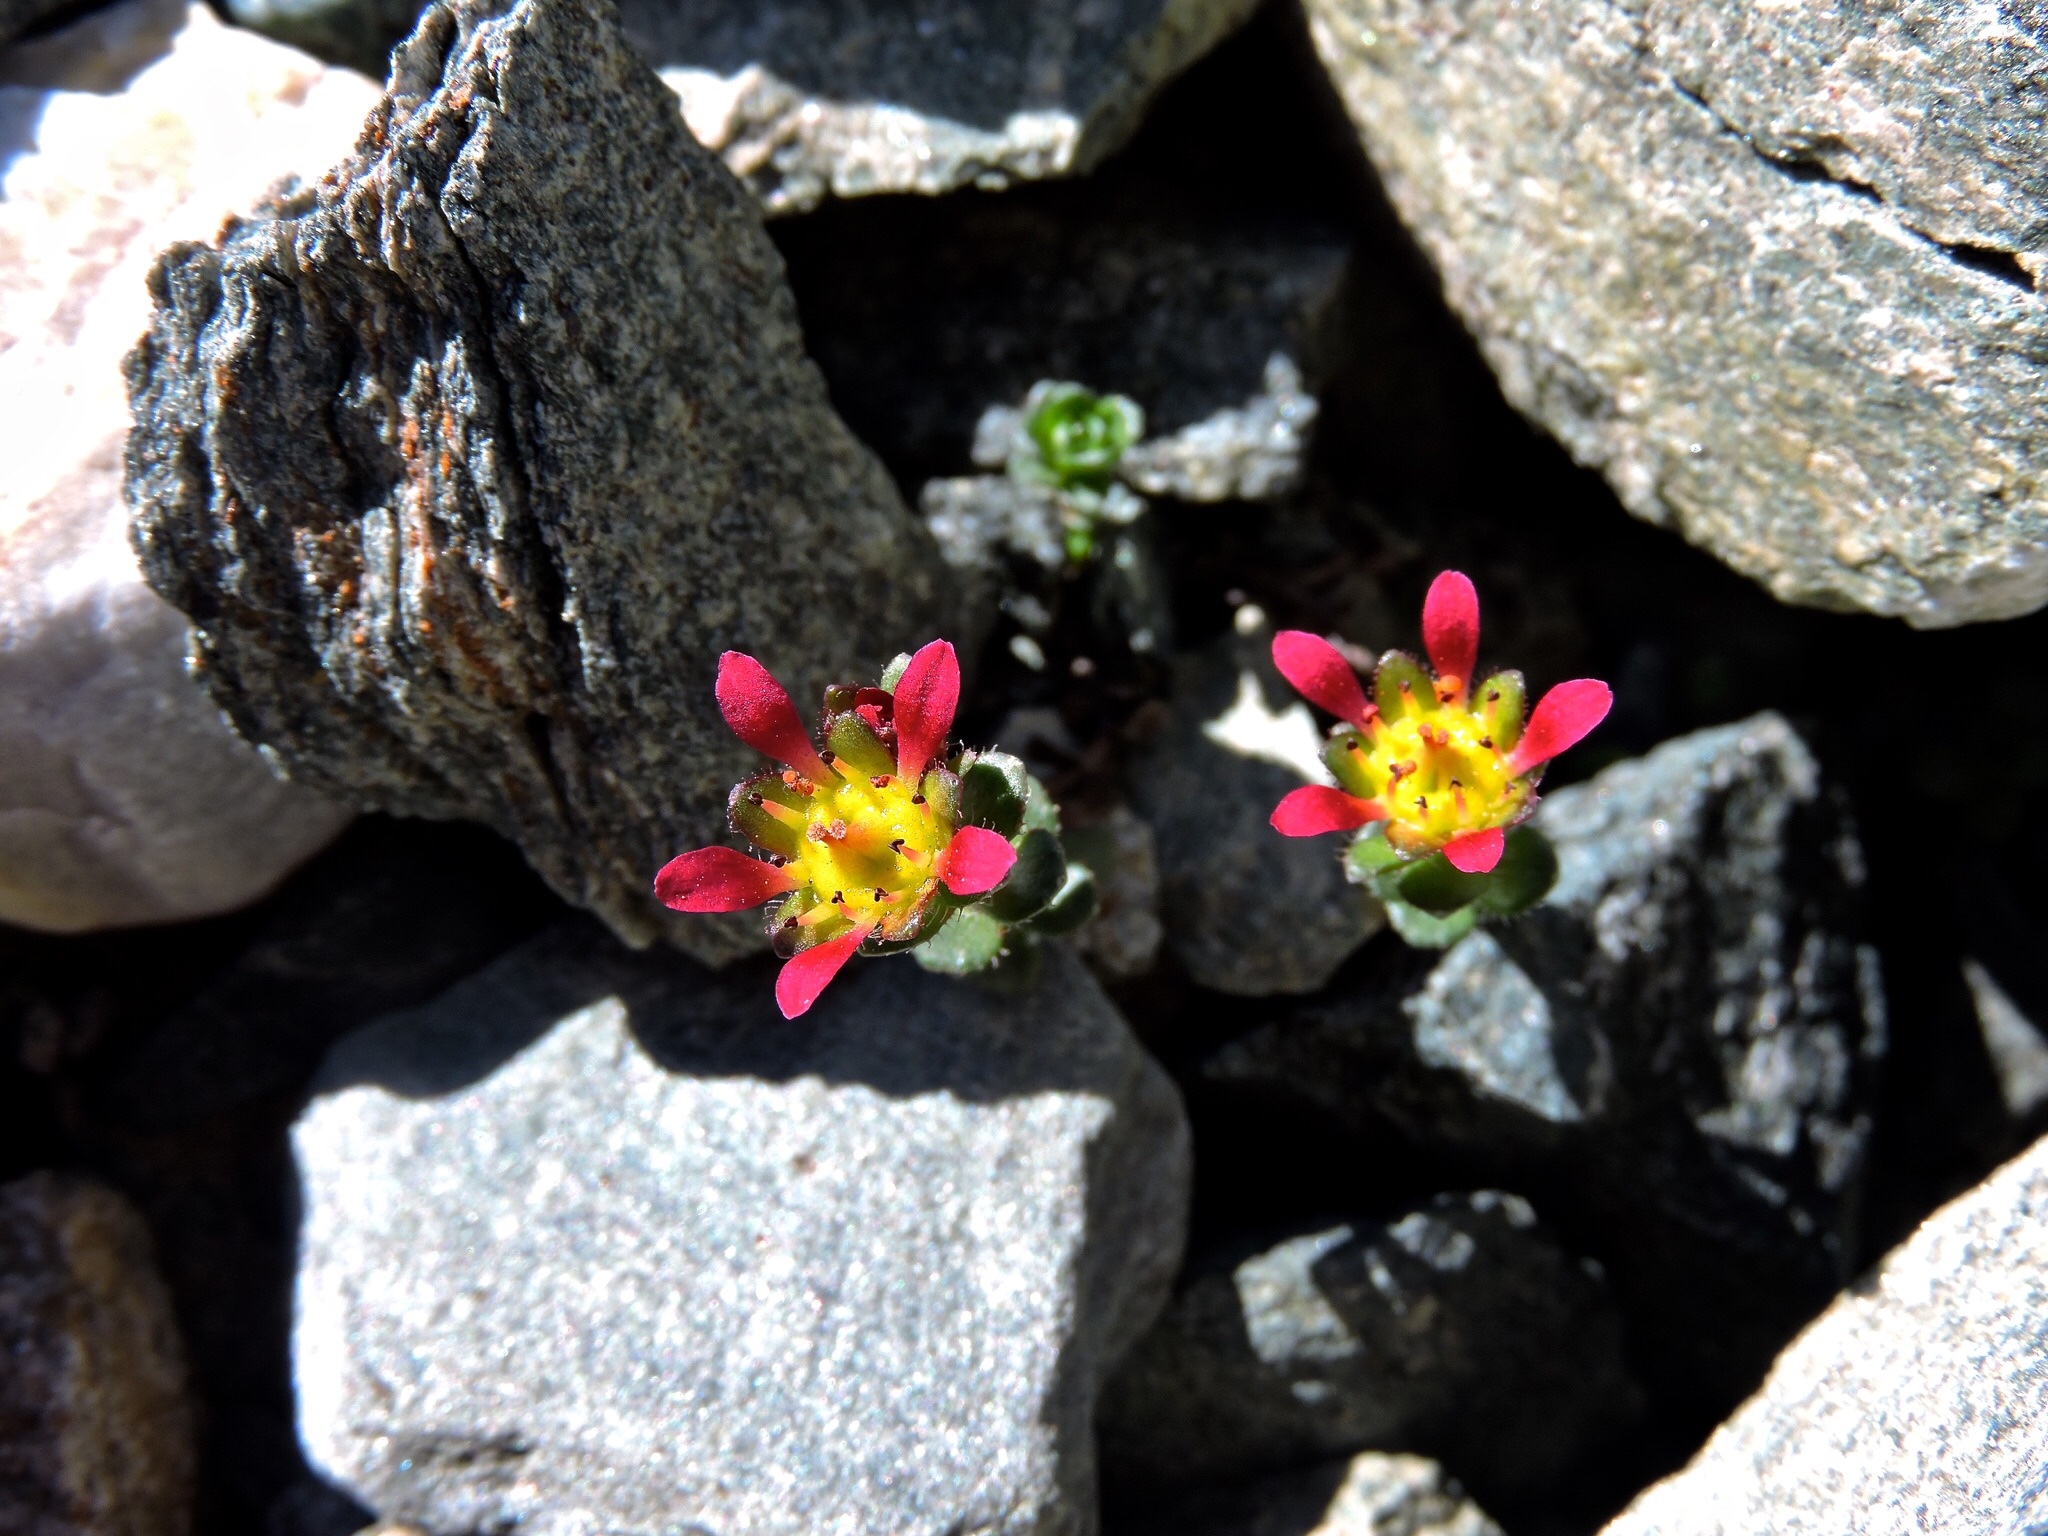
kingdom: Plantae
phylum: Tracheophyta
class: Magnoliopsida
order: Saxifragales
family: Saxifragaceae
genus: Saxifraga
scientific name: Saxifraga biflora
